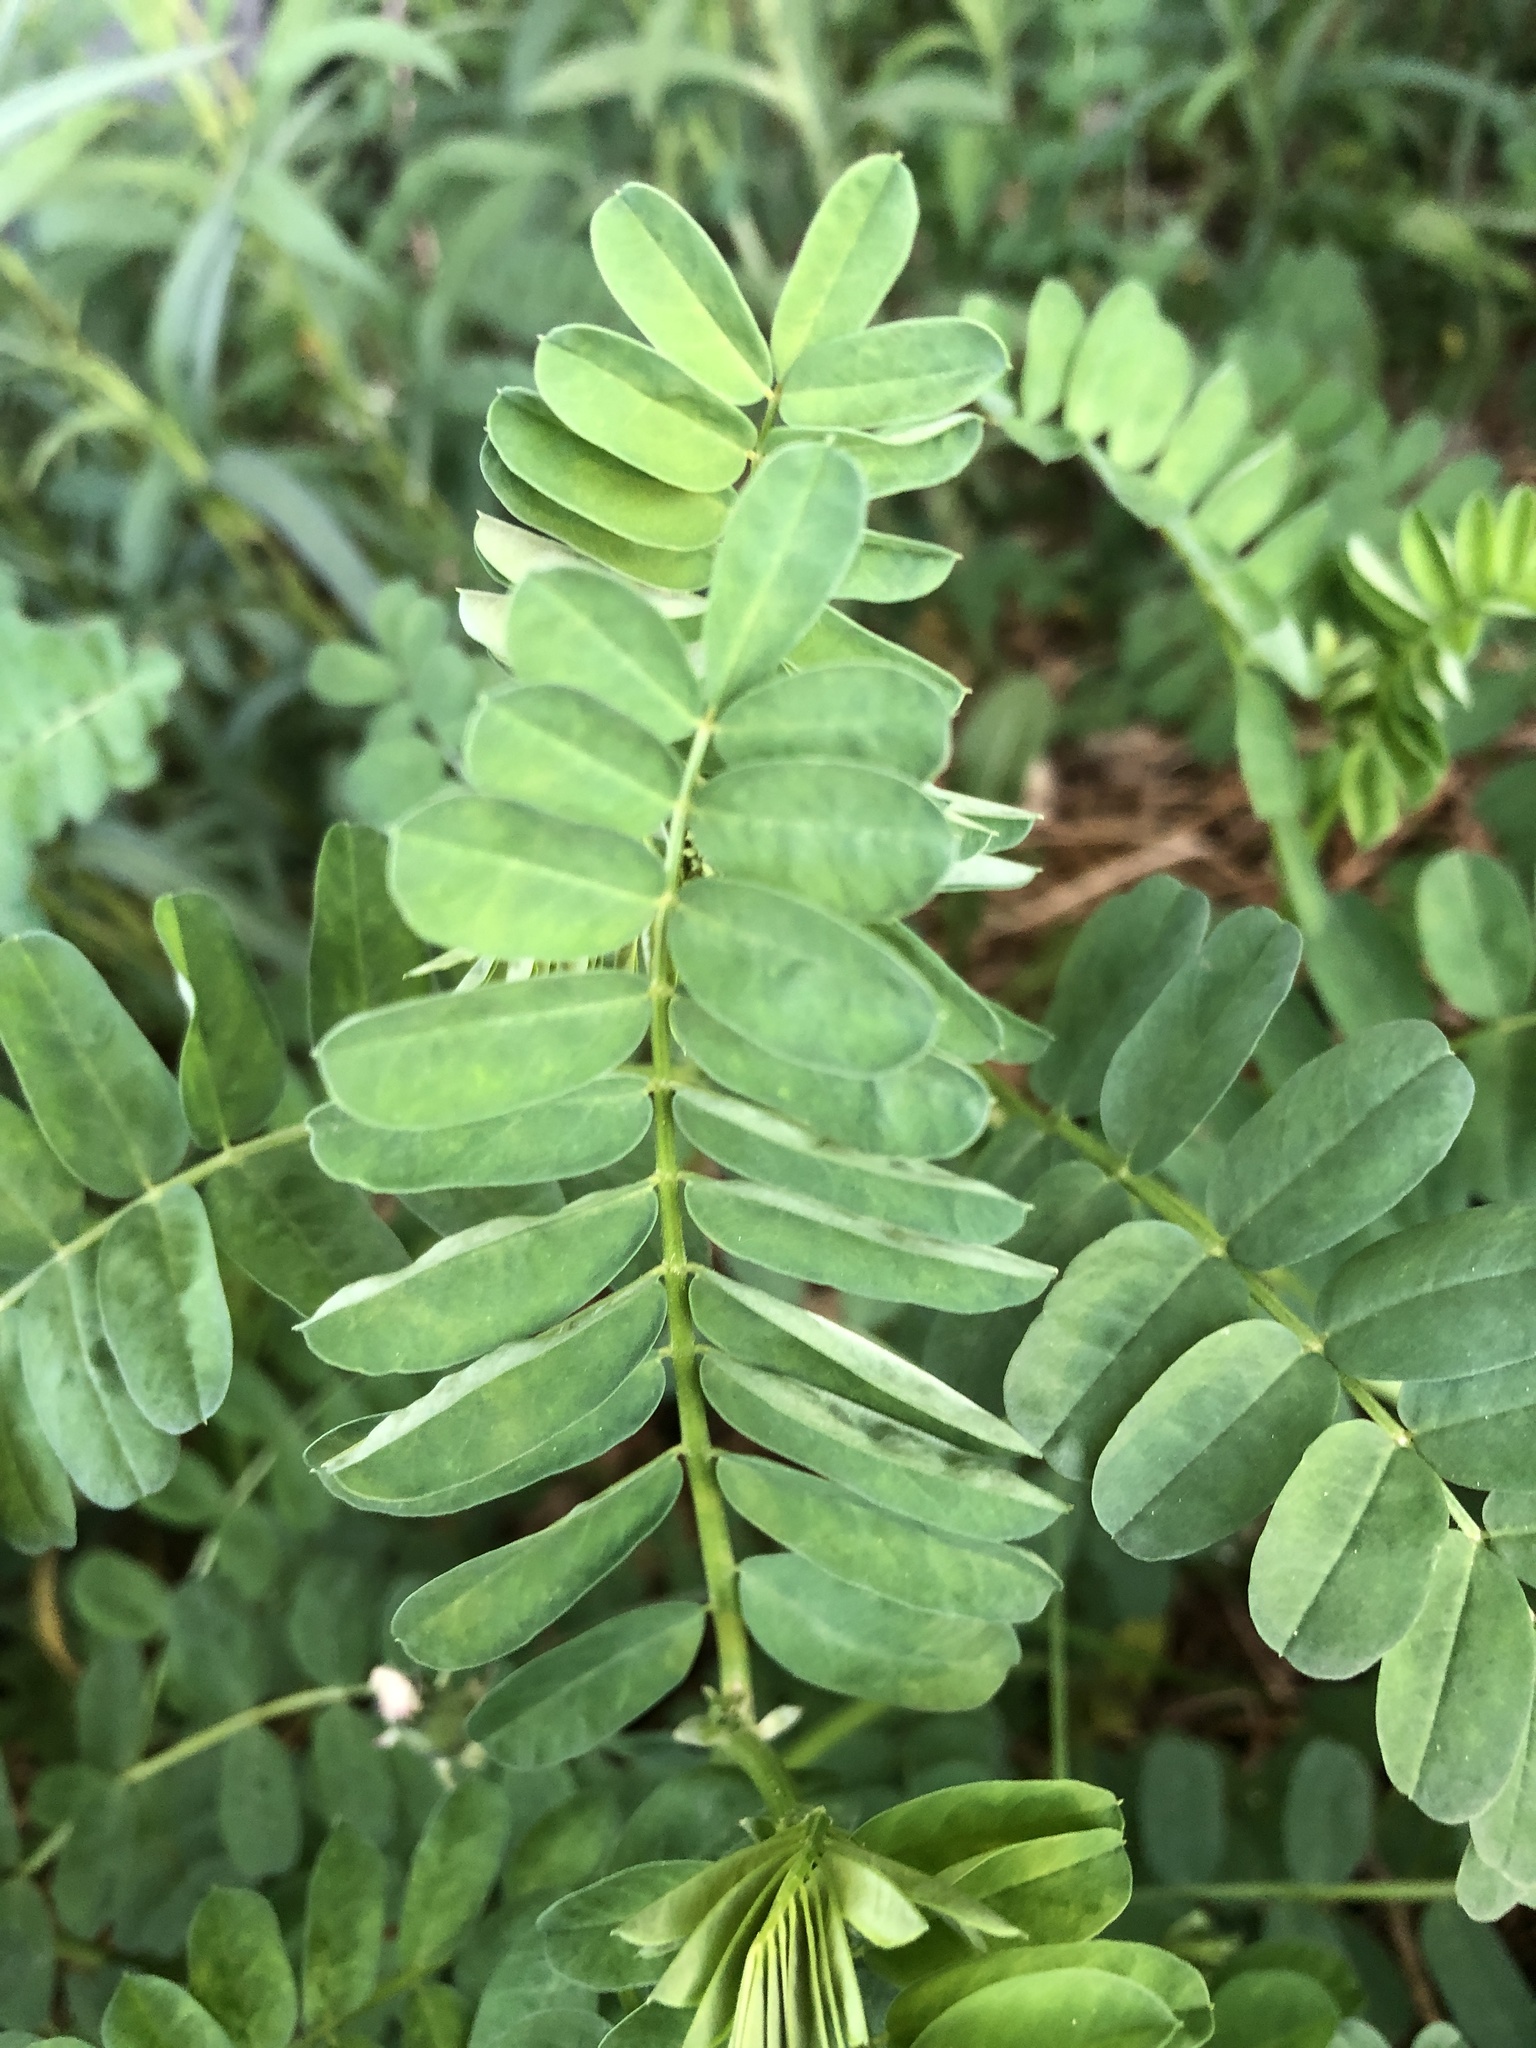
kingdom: Plantae
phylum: Tracheophyta
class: Magnoliopsida
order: Fabales
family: Fabaceae
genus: Coronilla
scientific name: Coronilla varia
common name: Crownvetch
